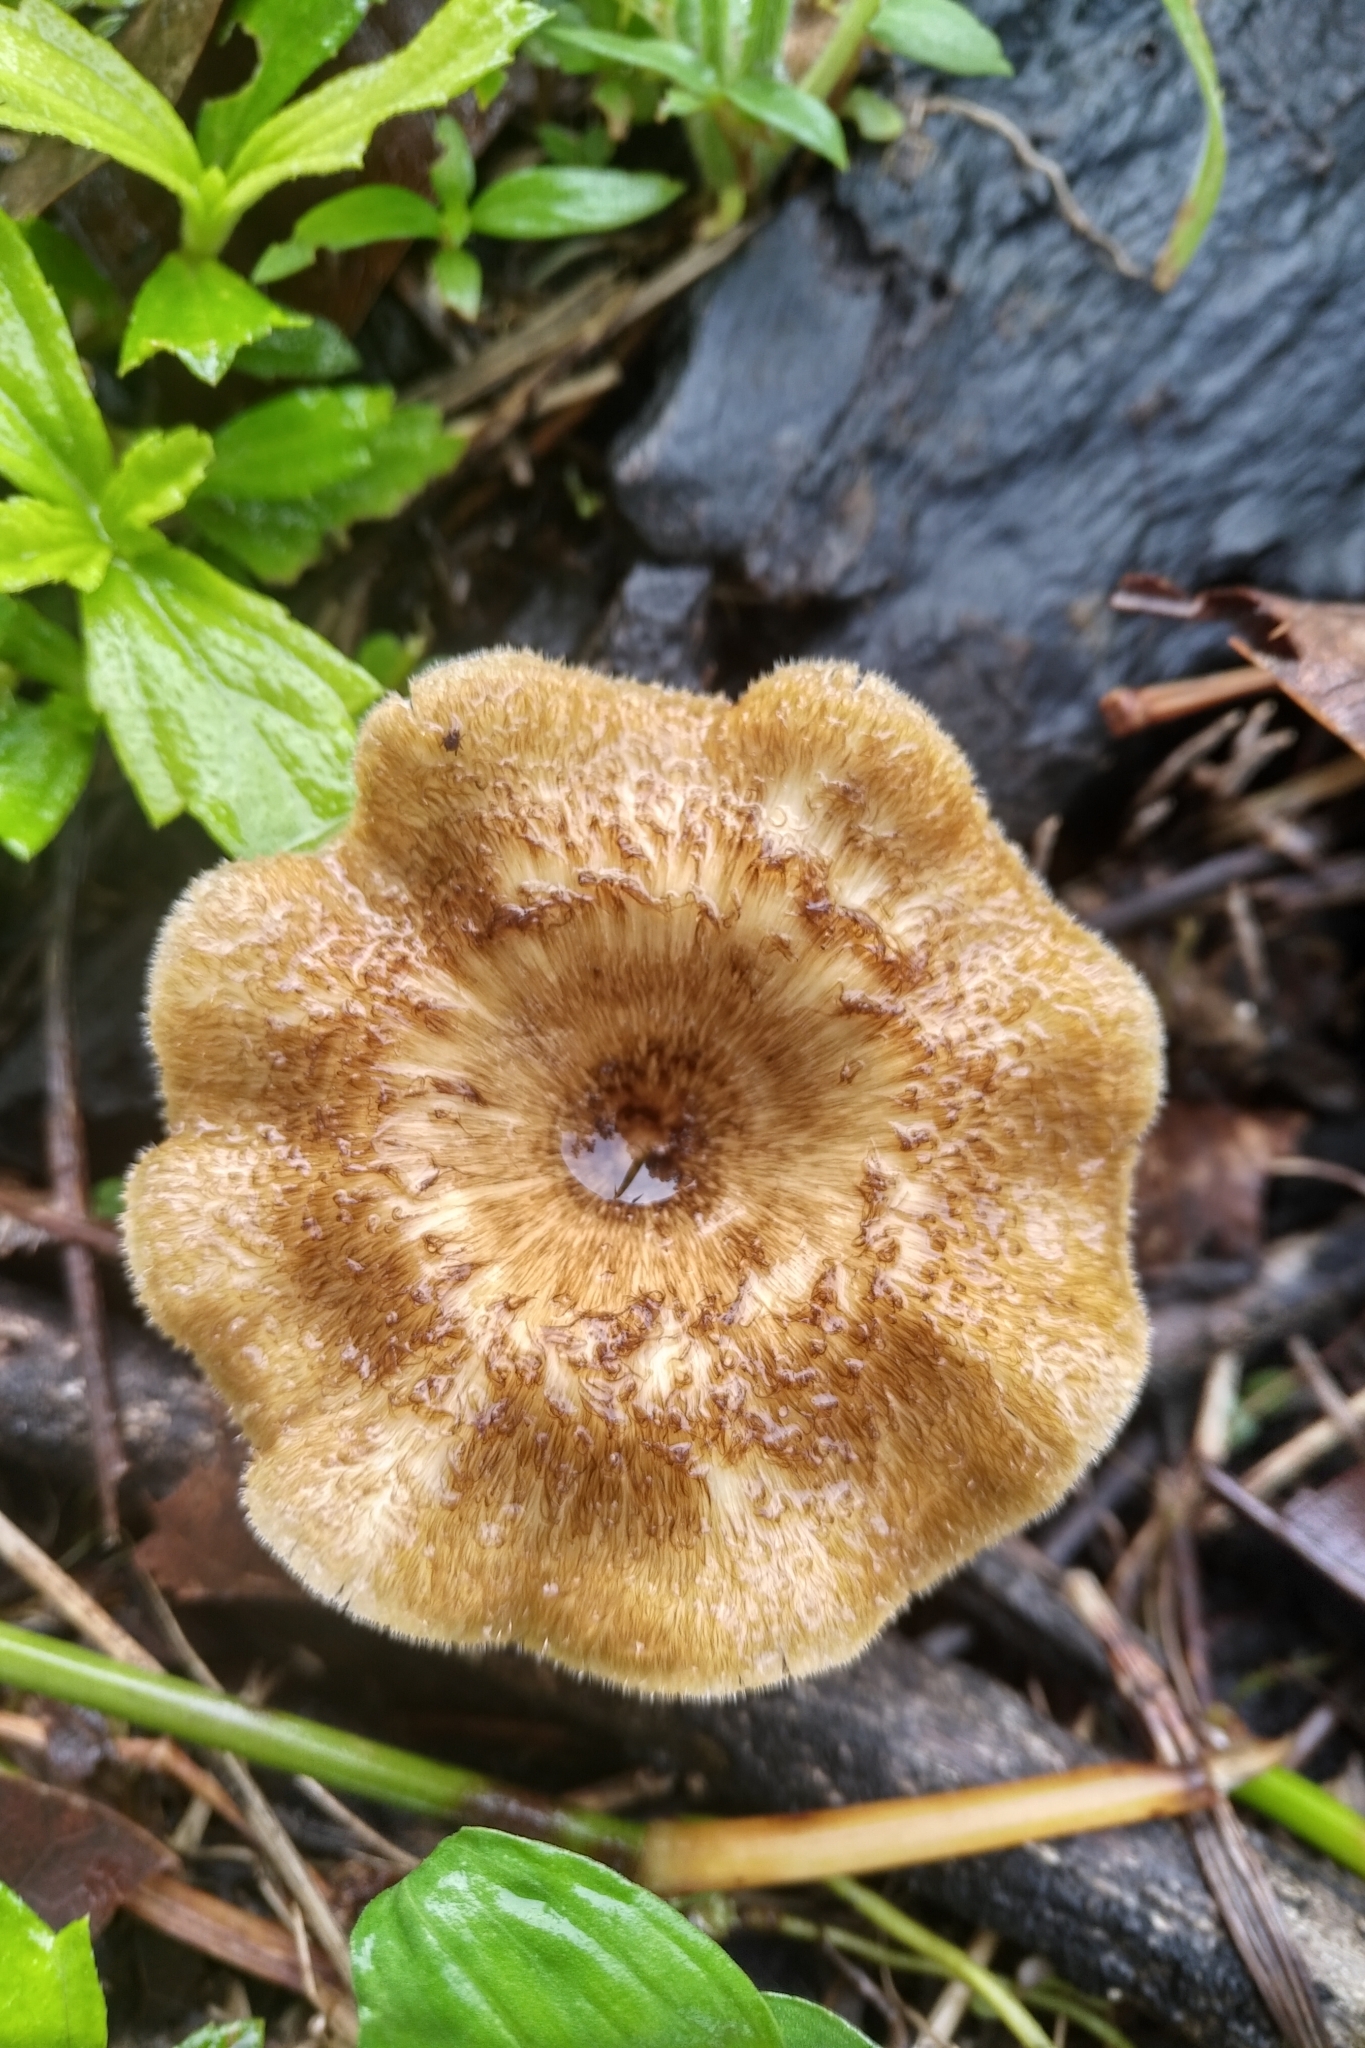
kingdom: Fungi
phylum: Basidiomycota
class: Agaricomycetes
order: Polyporales
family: Polyporaceae
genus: Lentinus
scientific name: Lentinus crinitus
